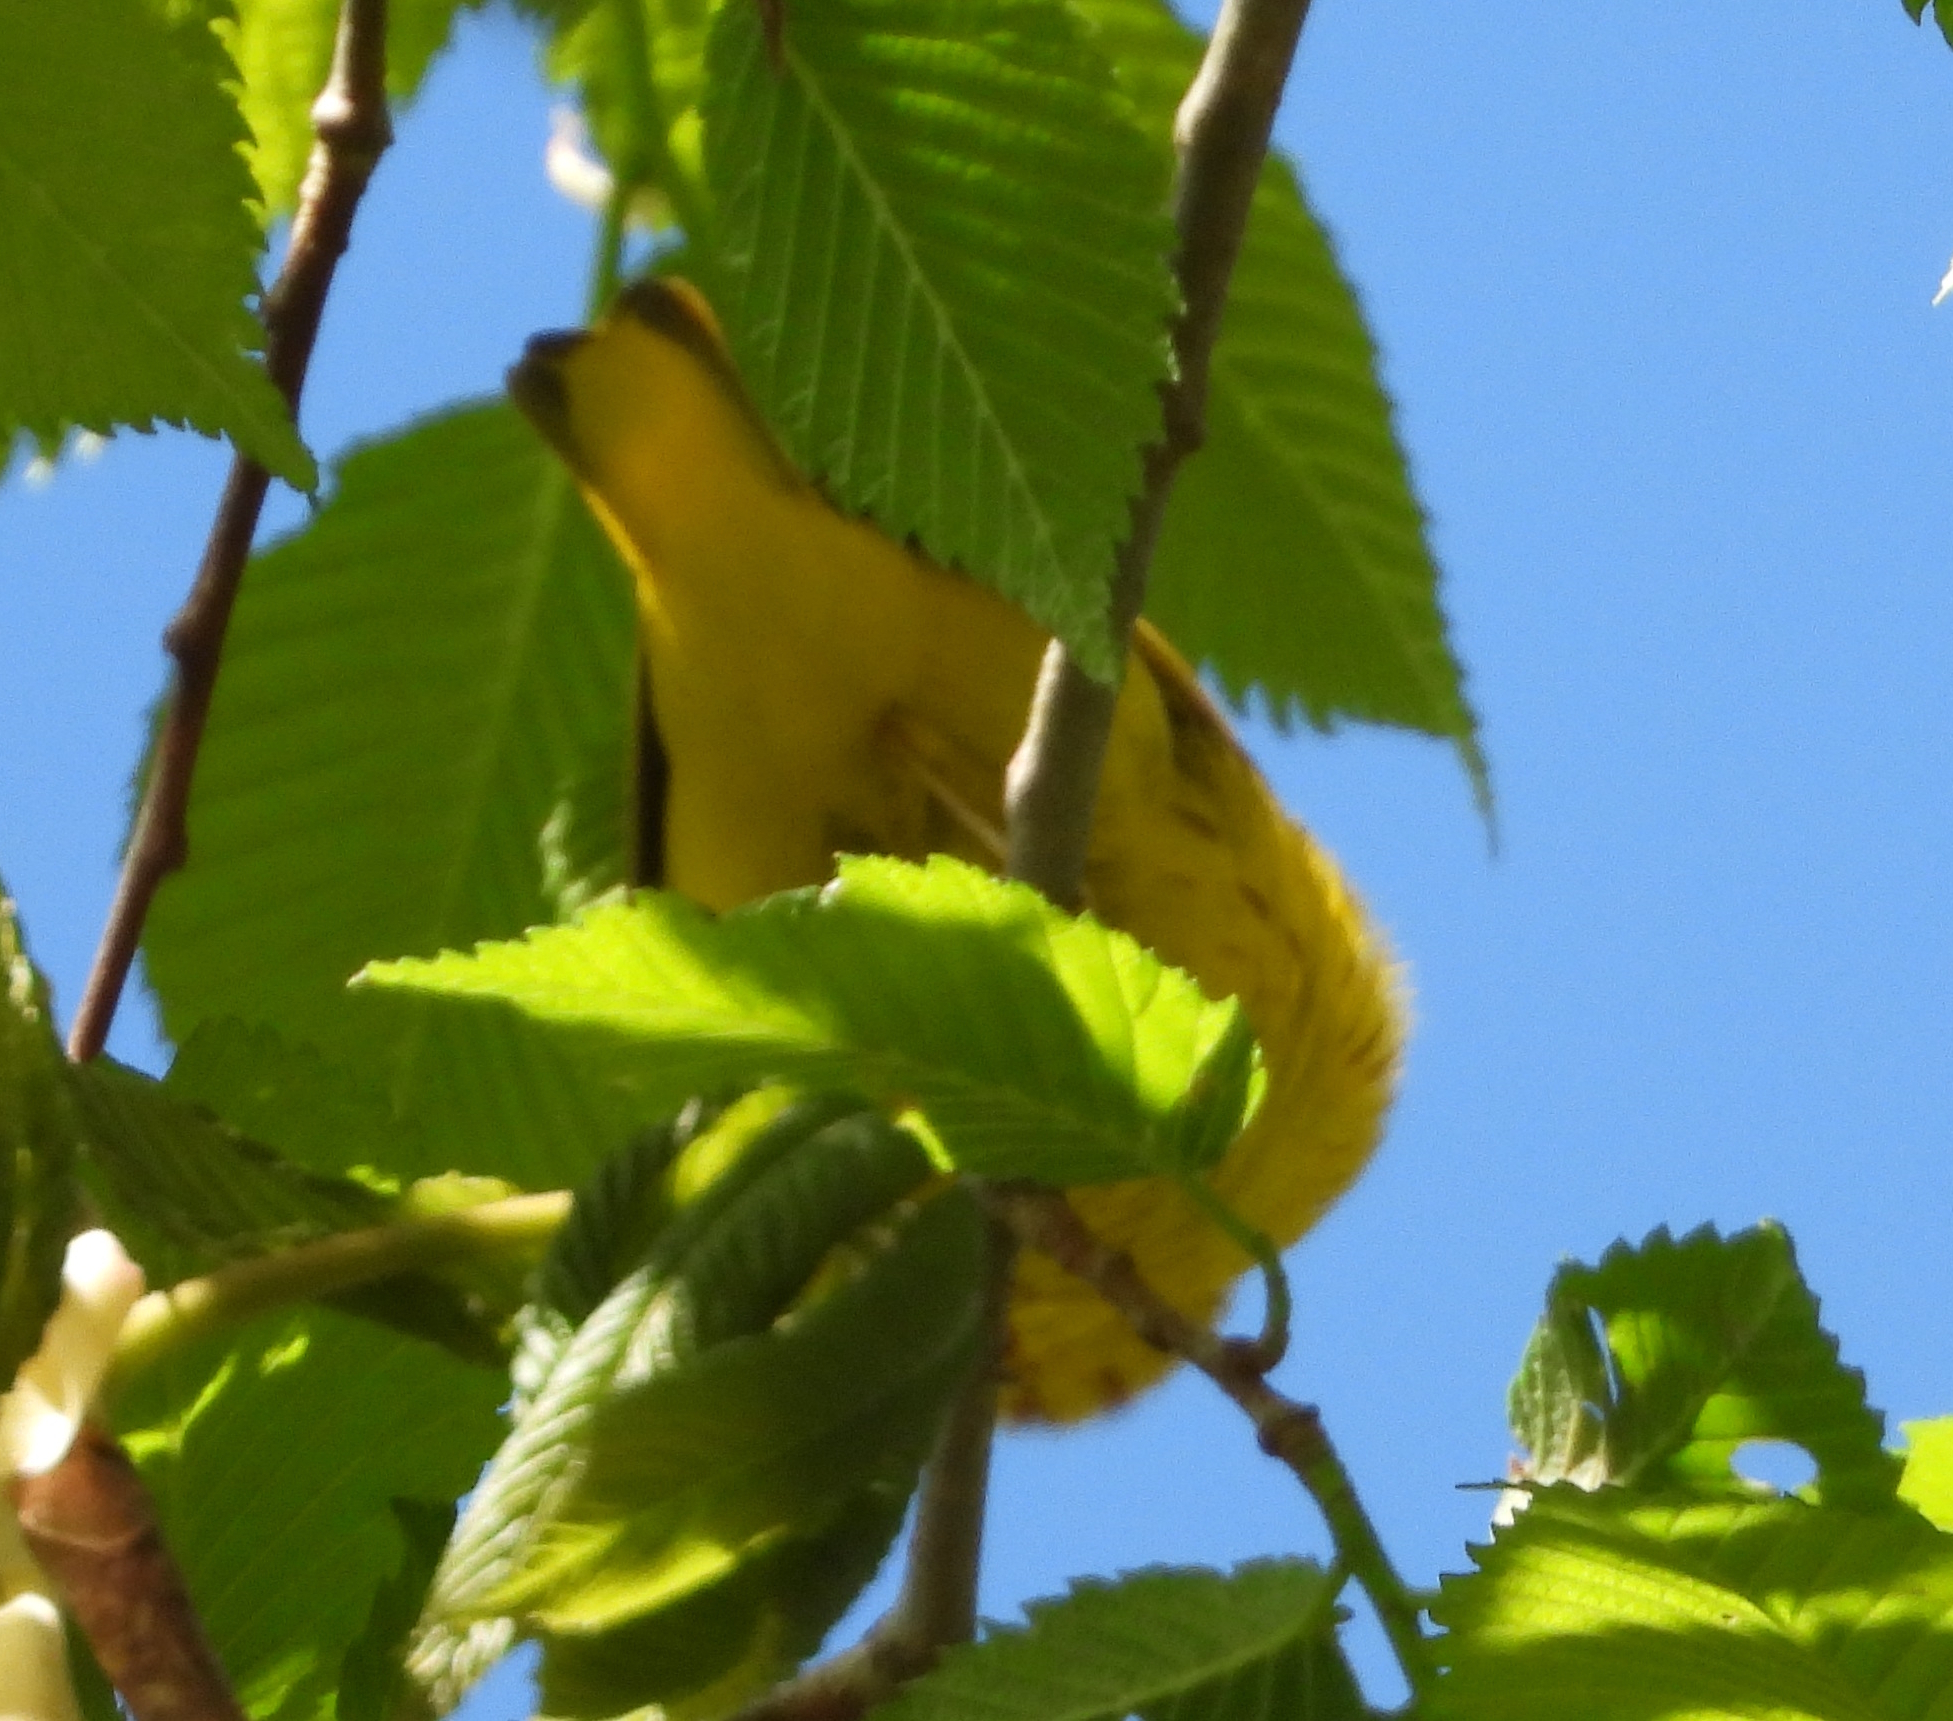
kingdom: Animalia
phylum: Chordata
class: Aves
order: Passeriformes
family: Parulidae
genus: Setophaga
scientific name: Setophaga petechia
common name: Yellow warbler
